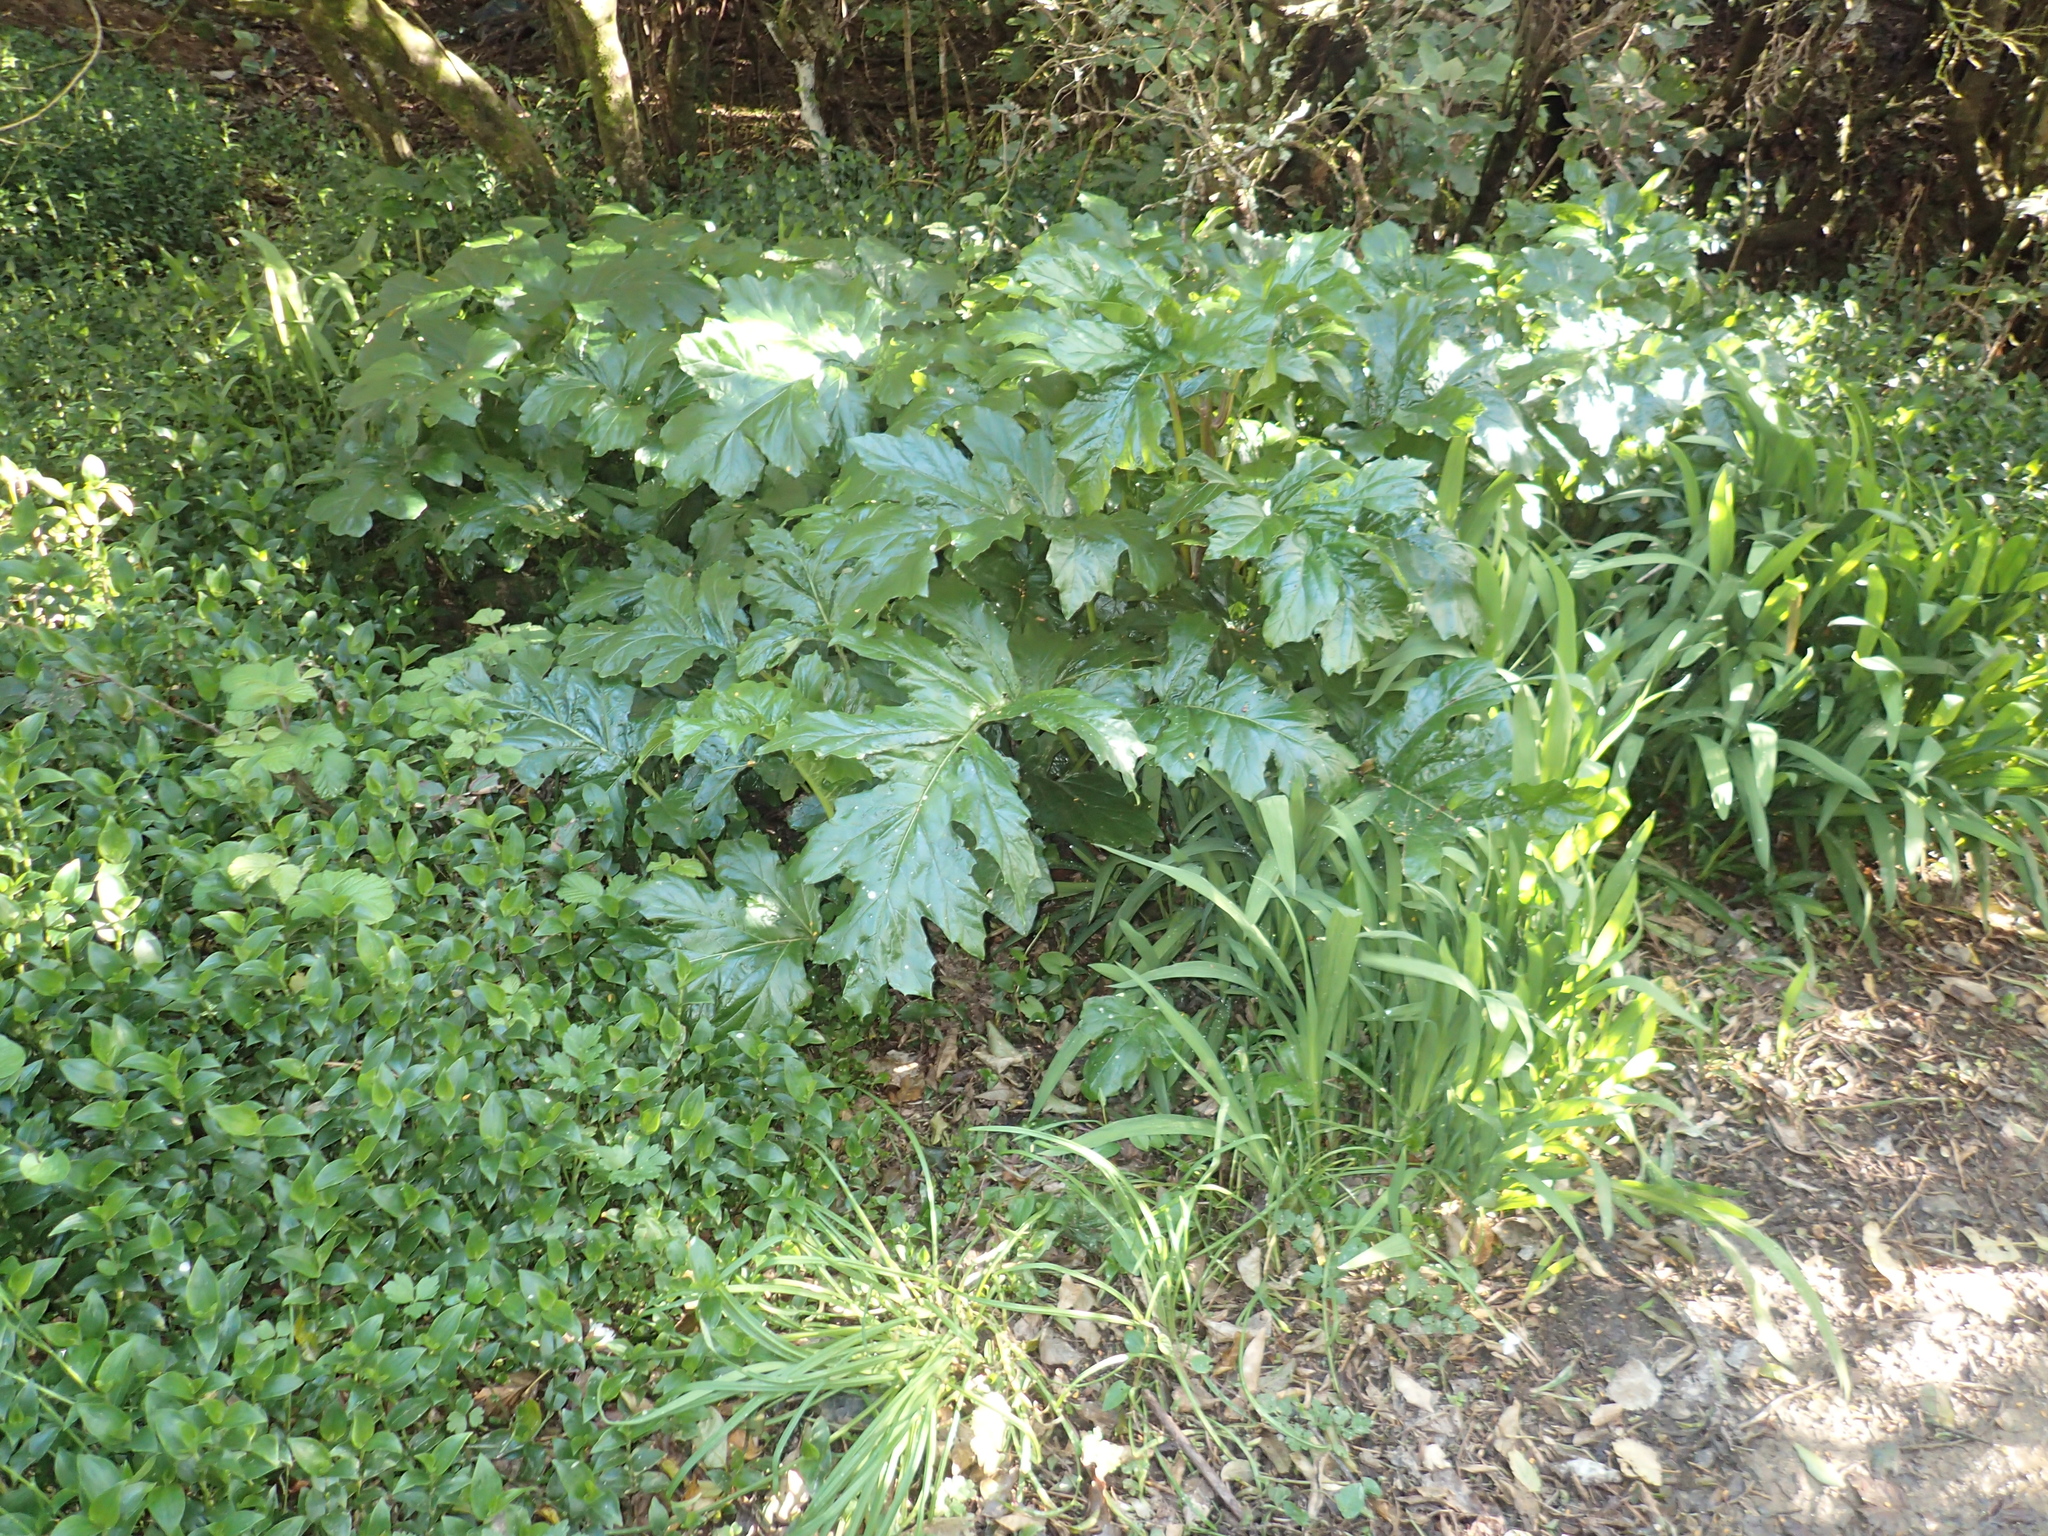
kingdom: Plantae
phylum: Tracheophyta
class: Magnoliopsida
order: Lamiales
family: Acanthaceae
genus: Acanthus
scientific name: Acanthus mollis
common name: Bear's-breech
